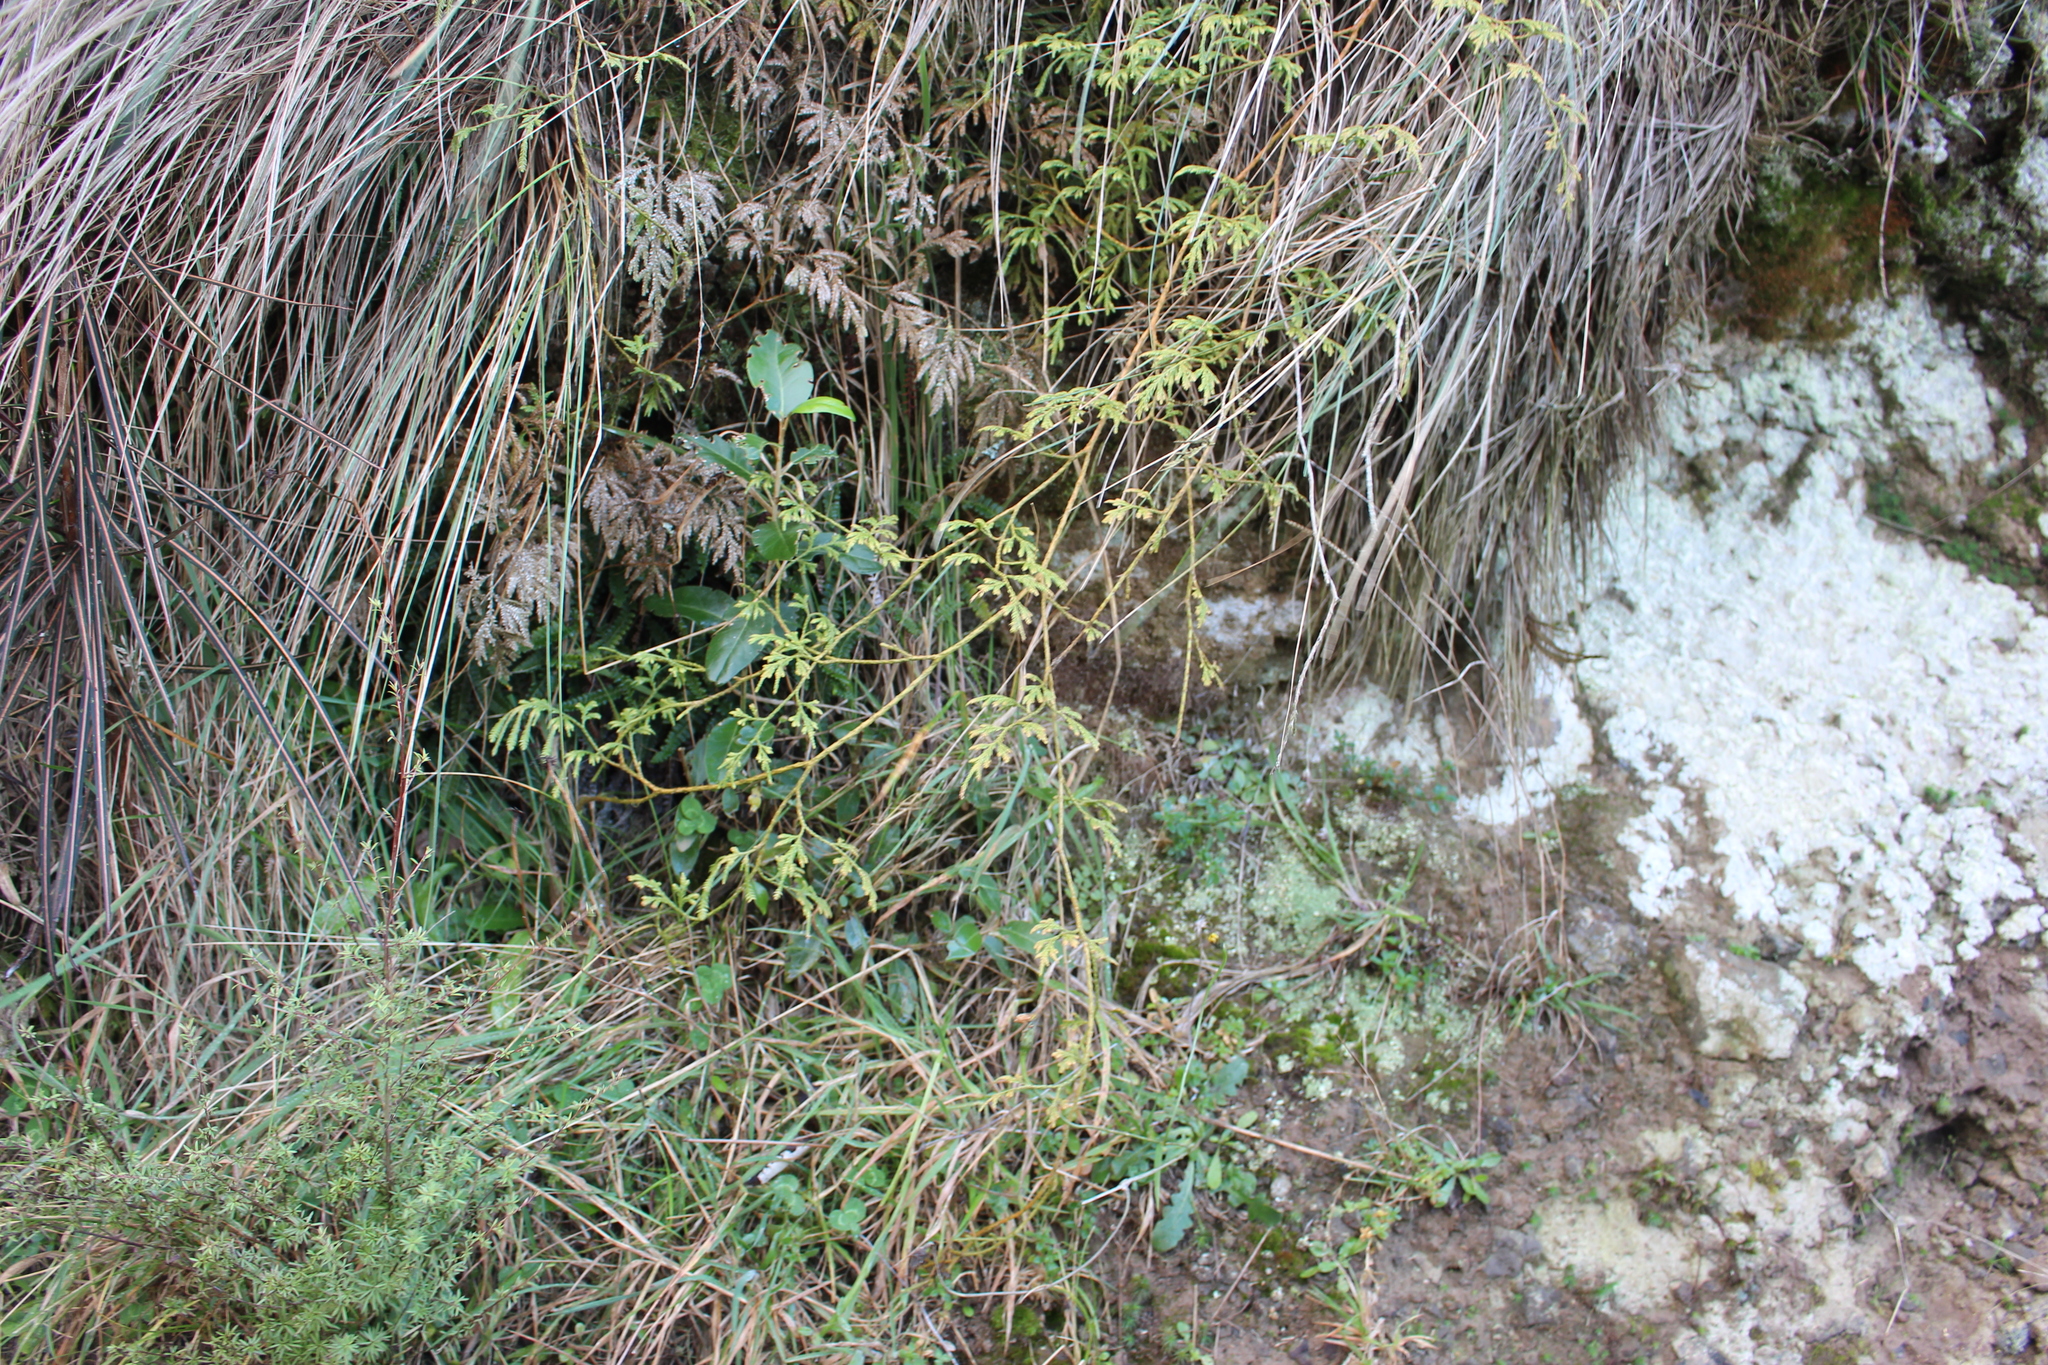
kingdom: Plantae
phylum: Tracheophyta
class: Lycopodiopsida
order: Lycopodiales
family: Lycopodiaceae
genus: Lycopodium
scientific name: Lycopodium volubile
